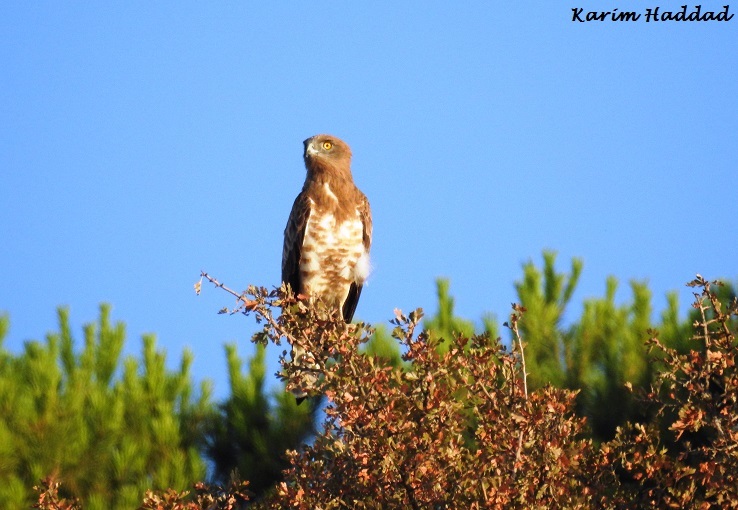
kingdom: Animalia
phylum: Chordata
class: Aves
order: Accipitriformes
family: Accipitridae
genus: Circaetus
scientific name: Circaetus gallicus
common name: Short-toed snake eagle
